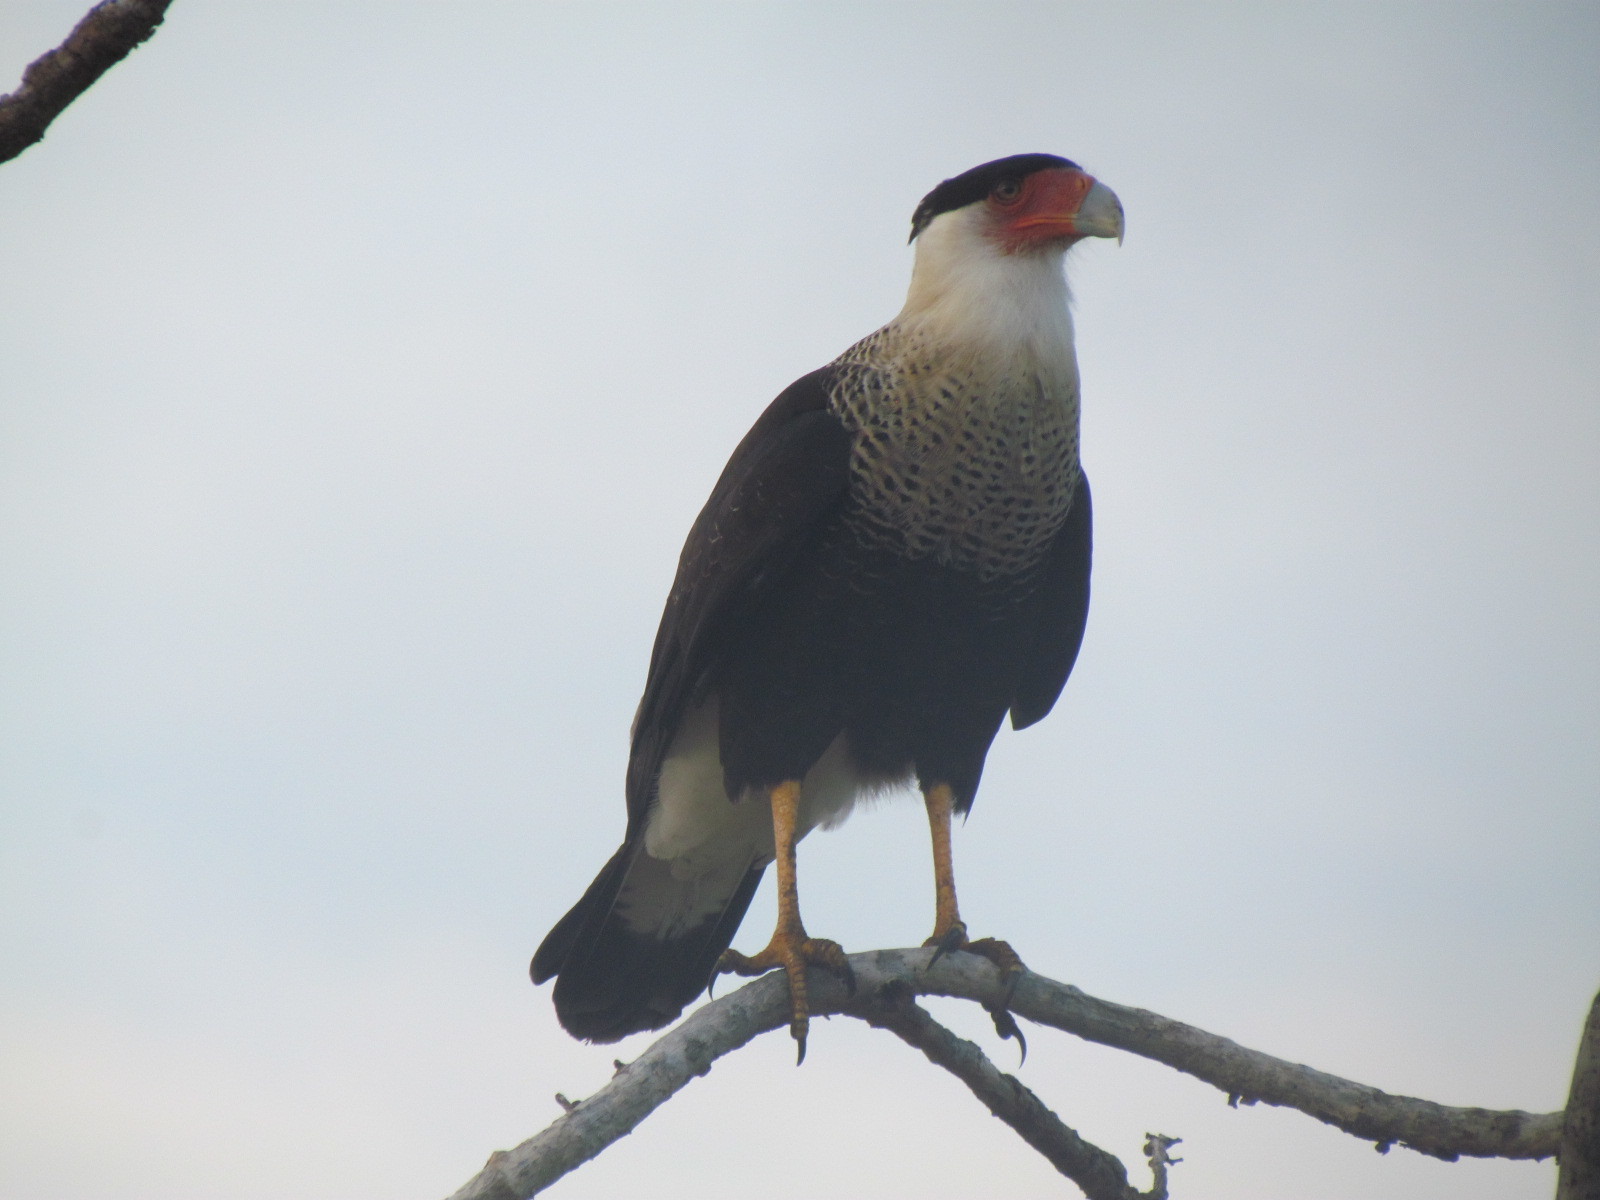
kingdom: Animalia
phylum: Chordata
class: Aves
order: Falconiformes
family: Falconidae
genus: Caracara
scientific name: Caracara plancus
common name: Southern caracara
